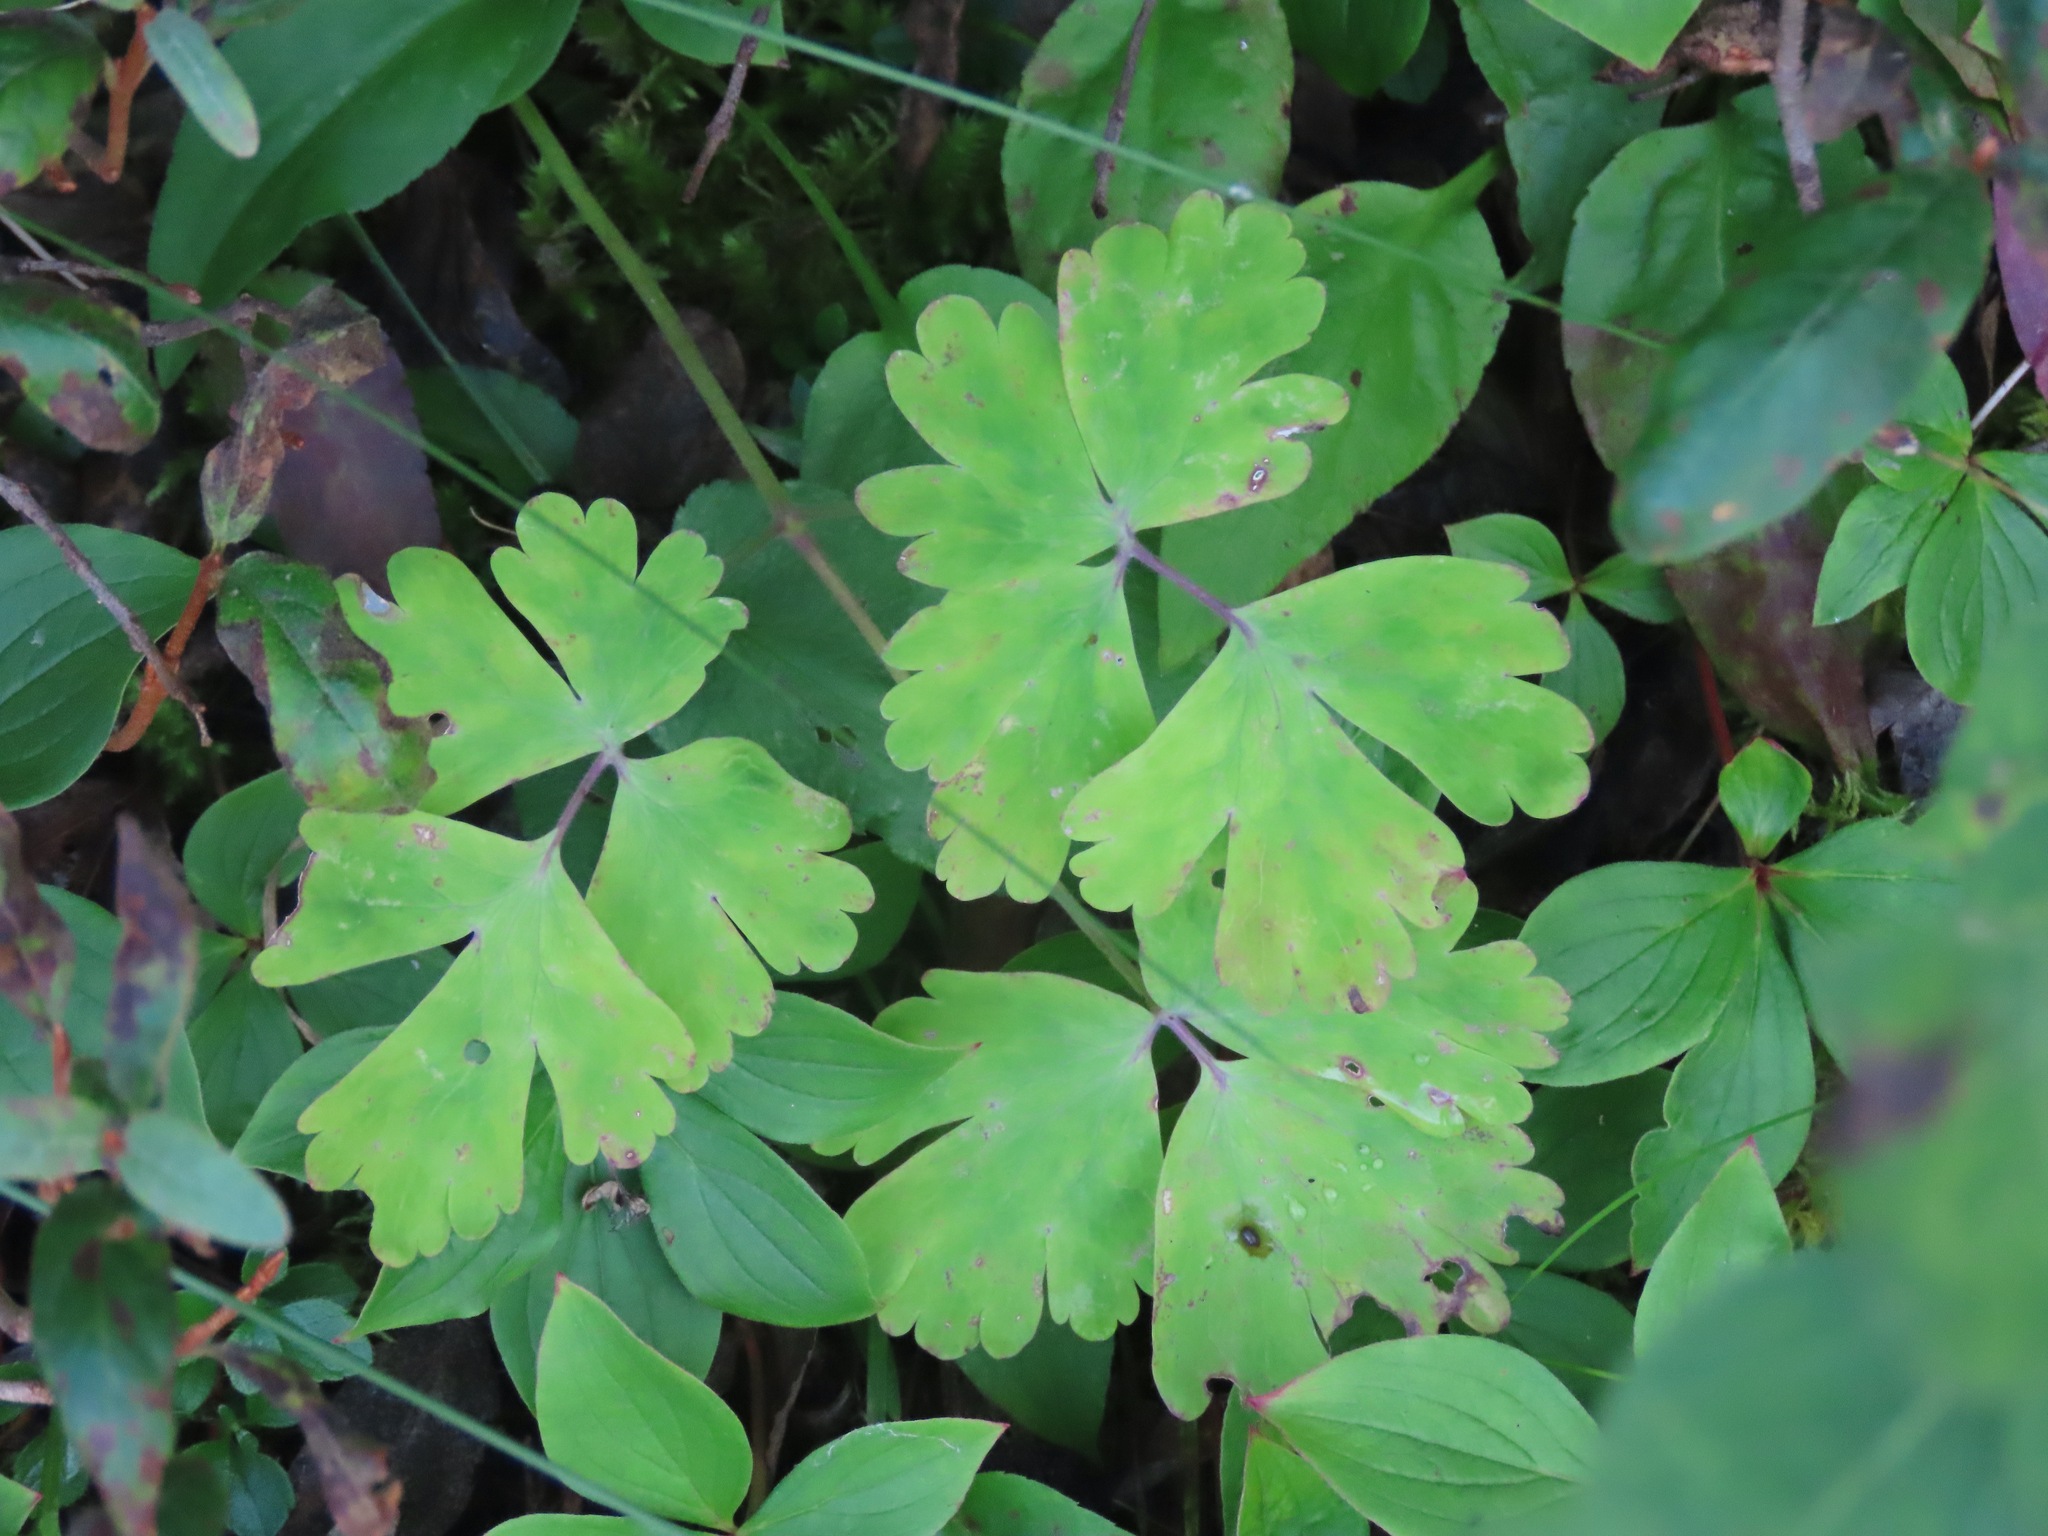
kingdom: Plantae
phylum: Tracheophyta
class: Magnoliopsida
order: Ranunculales
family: Ranunculaceae
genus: Aquilegia
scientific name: Aquilegia formosa
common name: Sitka columbine
